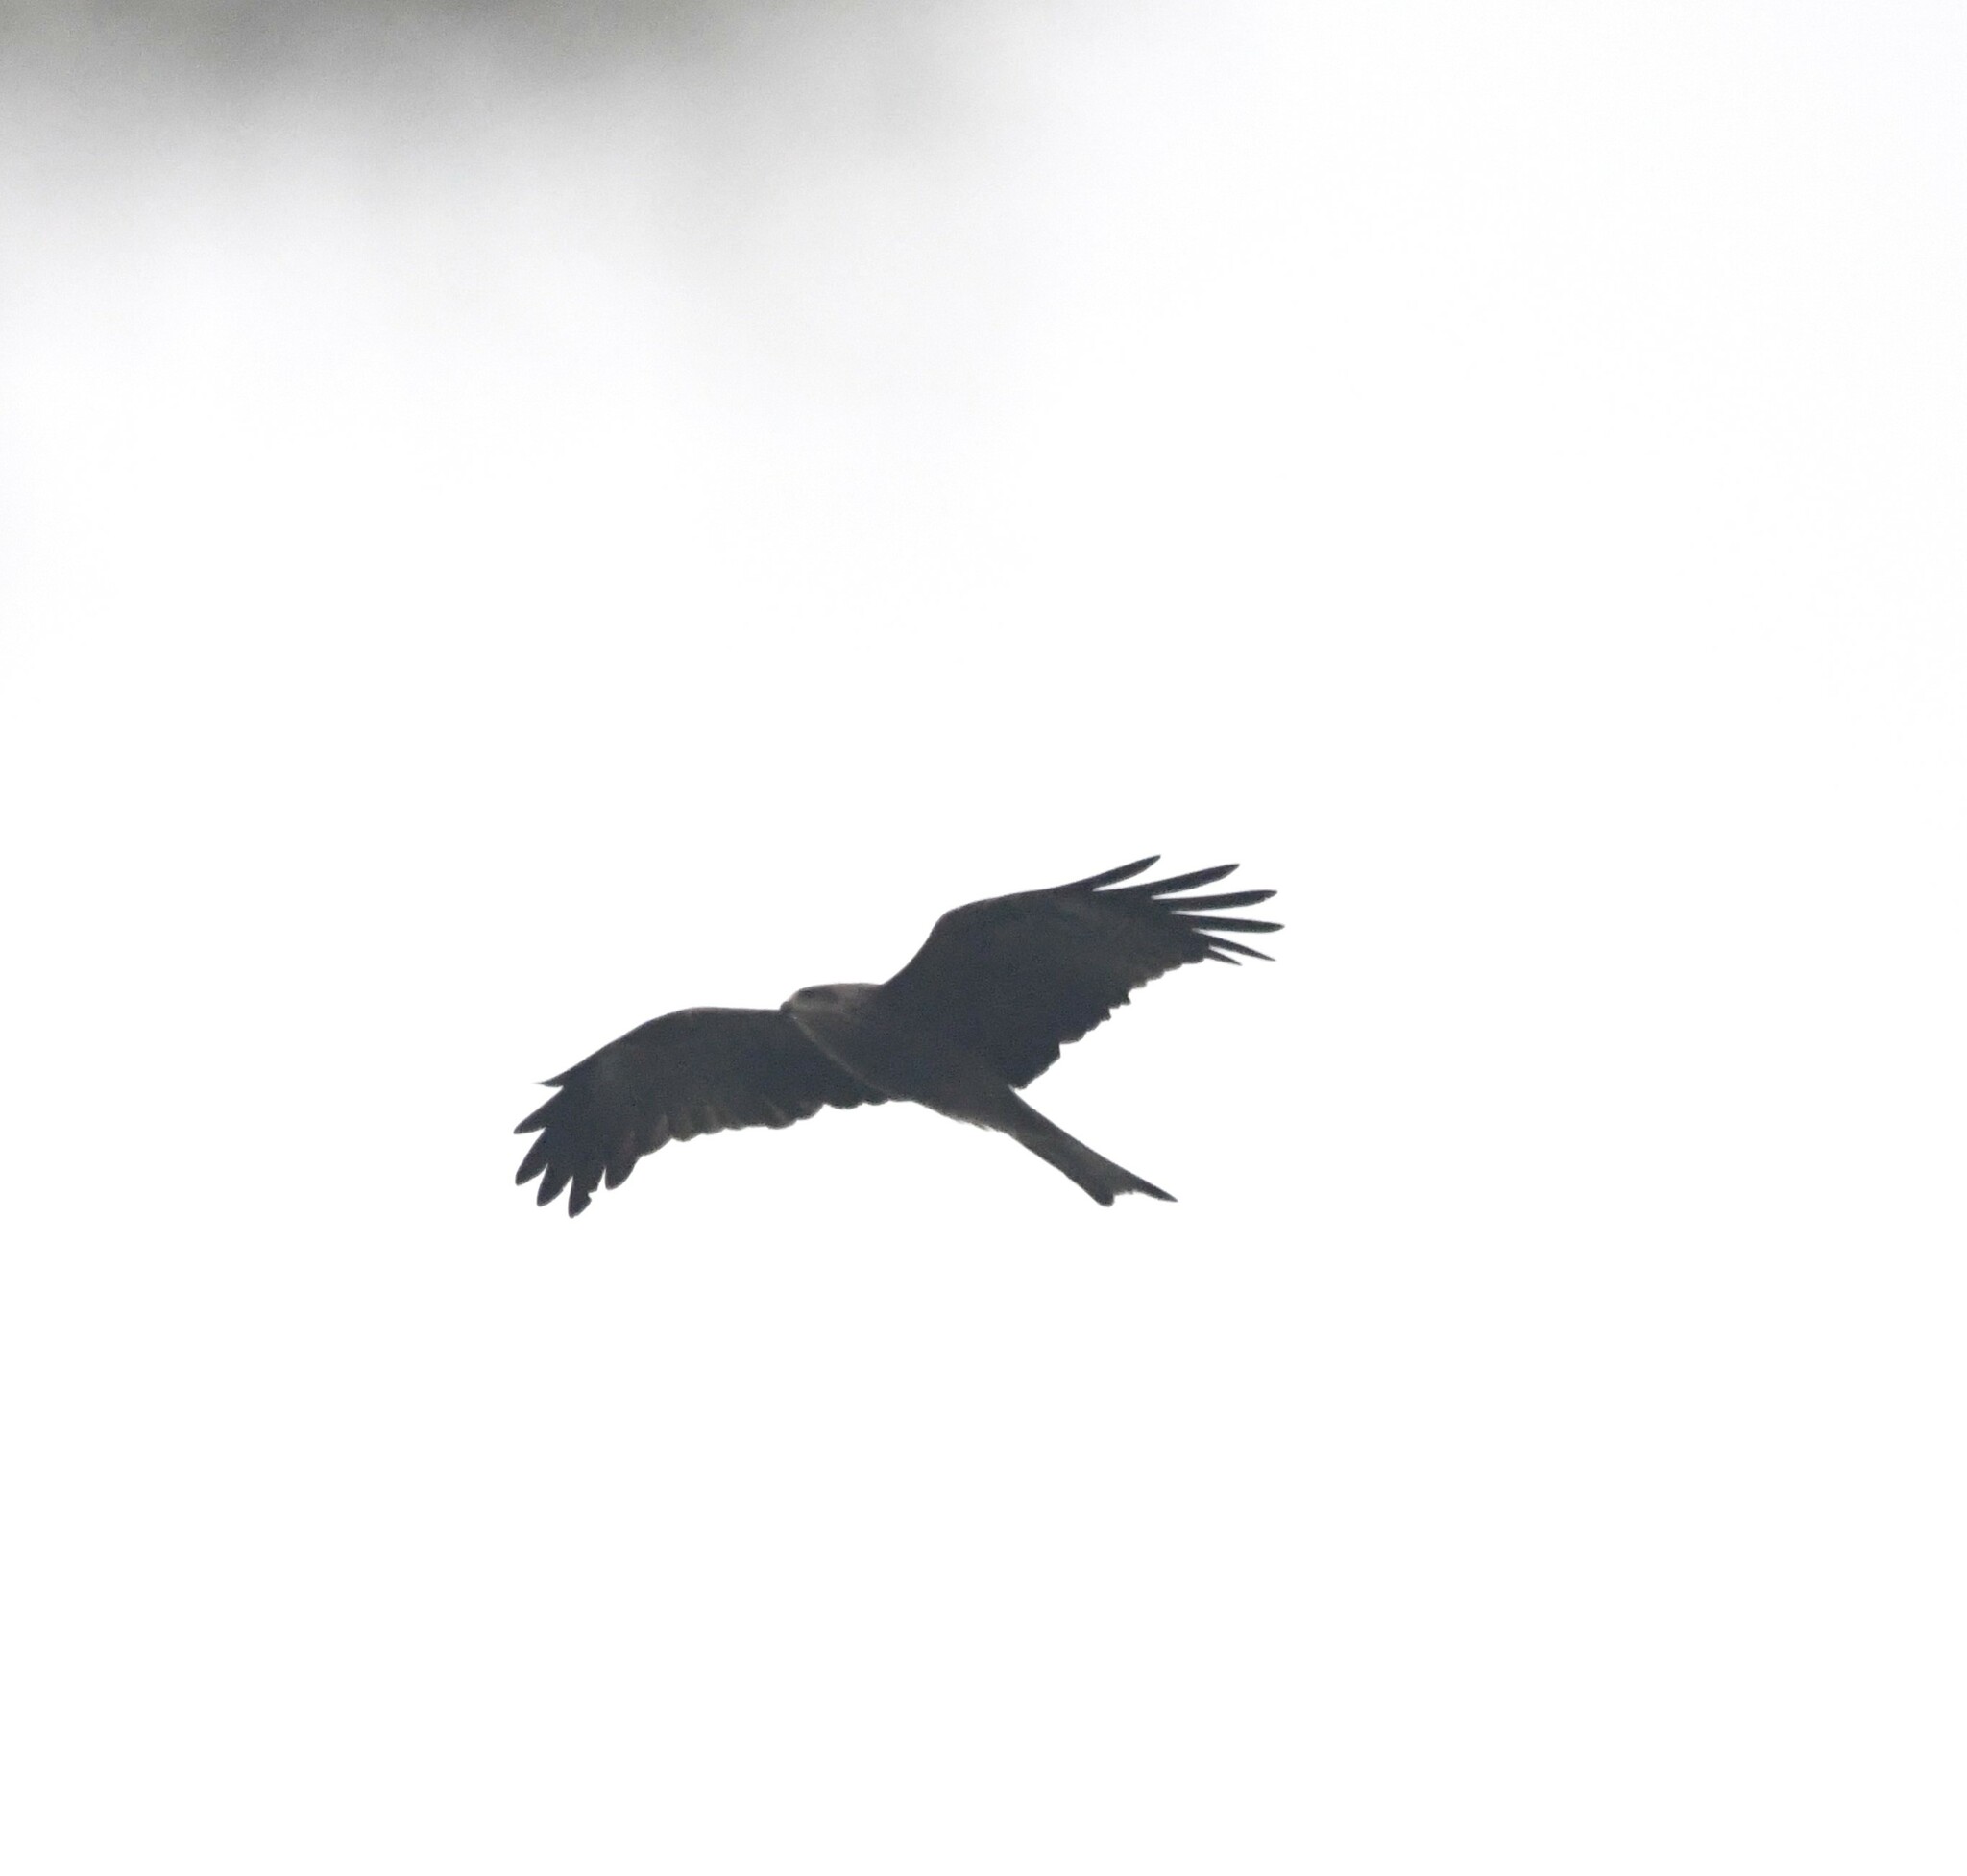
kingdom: Animalia
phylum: Chordata
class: Aves
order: Accipitriformes
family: Accipitridae
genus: Milvus
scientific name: Milvus migrans
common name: Black kite
